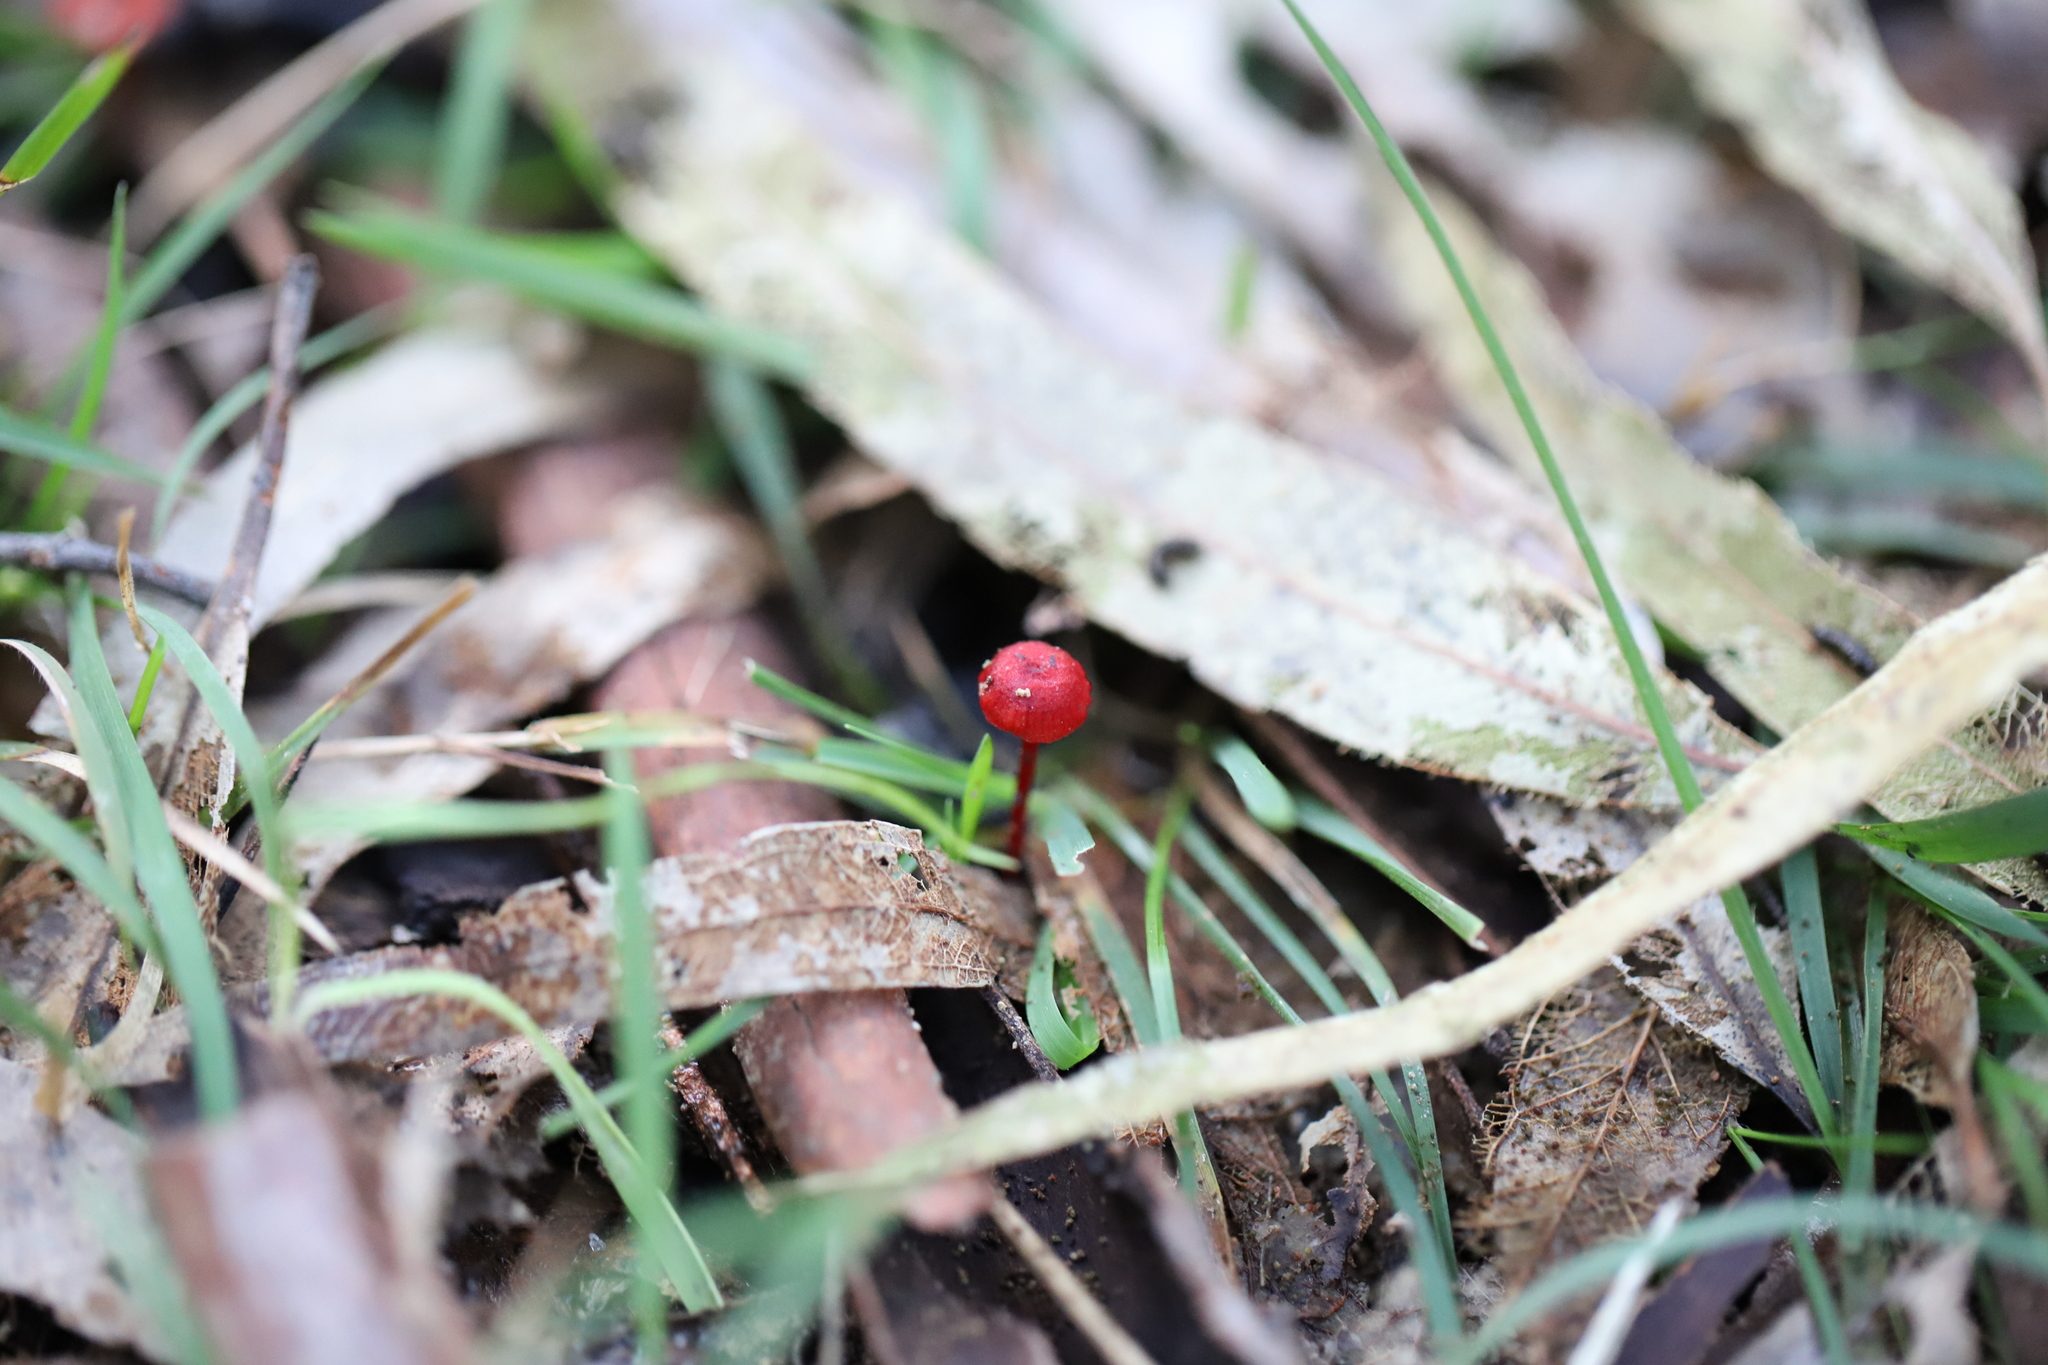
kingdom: Fungi
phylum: Basidiomycota
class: Agaricomycetes
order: Agaricales
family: Mycenaceae
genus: Cruentomycena
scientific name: Cruentomycena viscidocruenta
